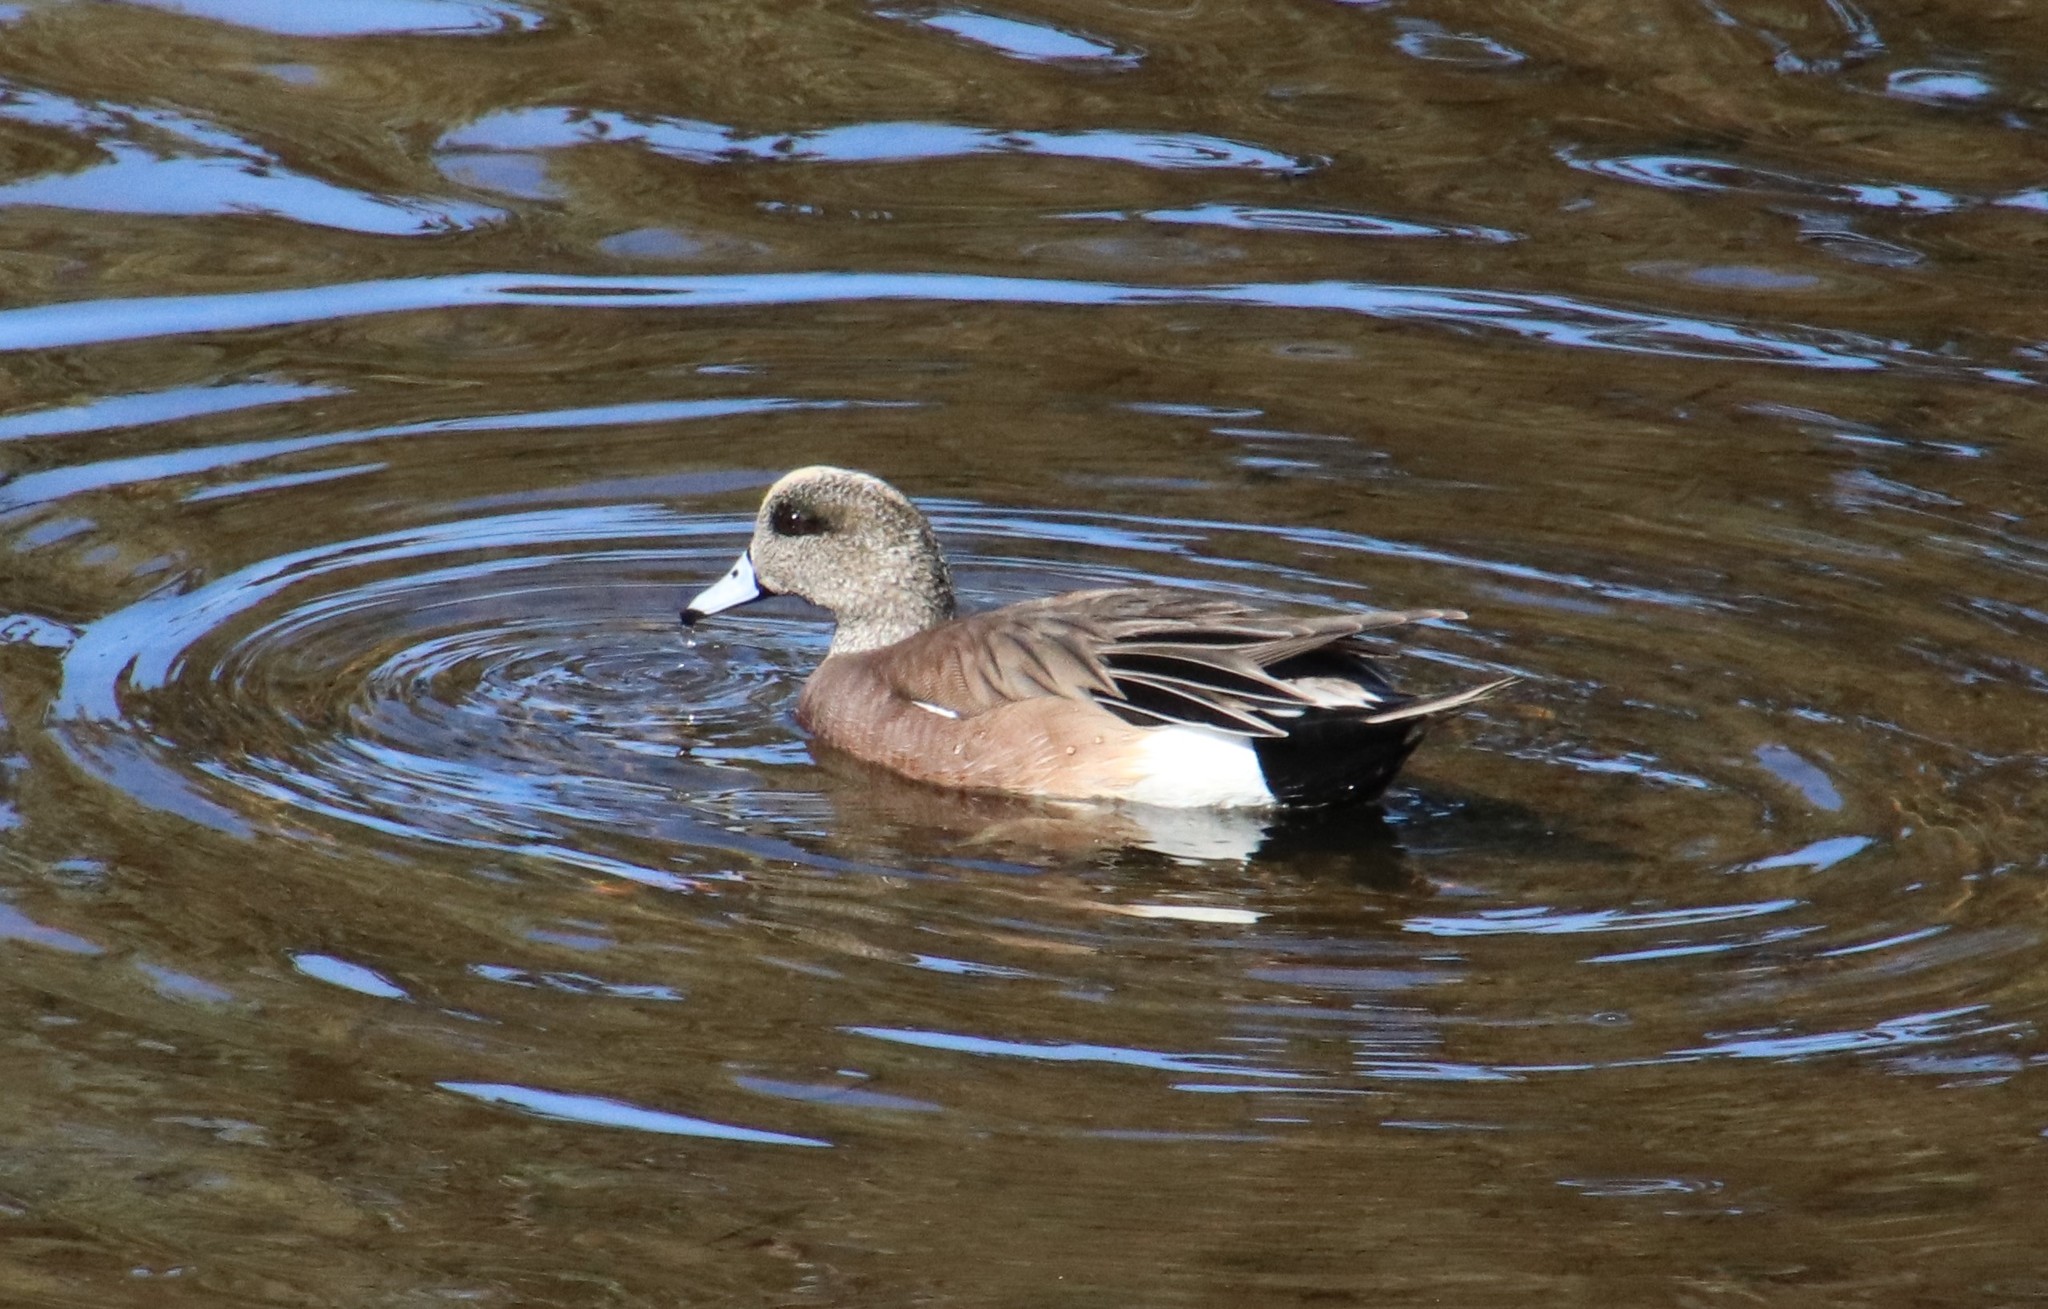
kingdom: Animalia
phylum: Chordata
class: Aves
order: Anseriformes
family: Anatidae
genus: Mareca
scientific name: Mareca americana
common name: American wigeon
